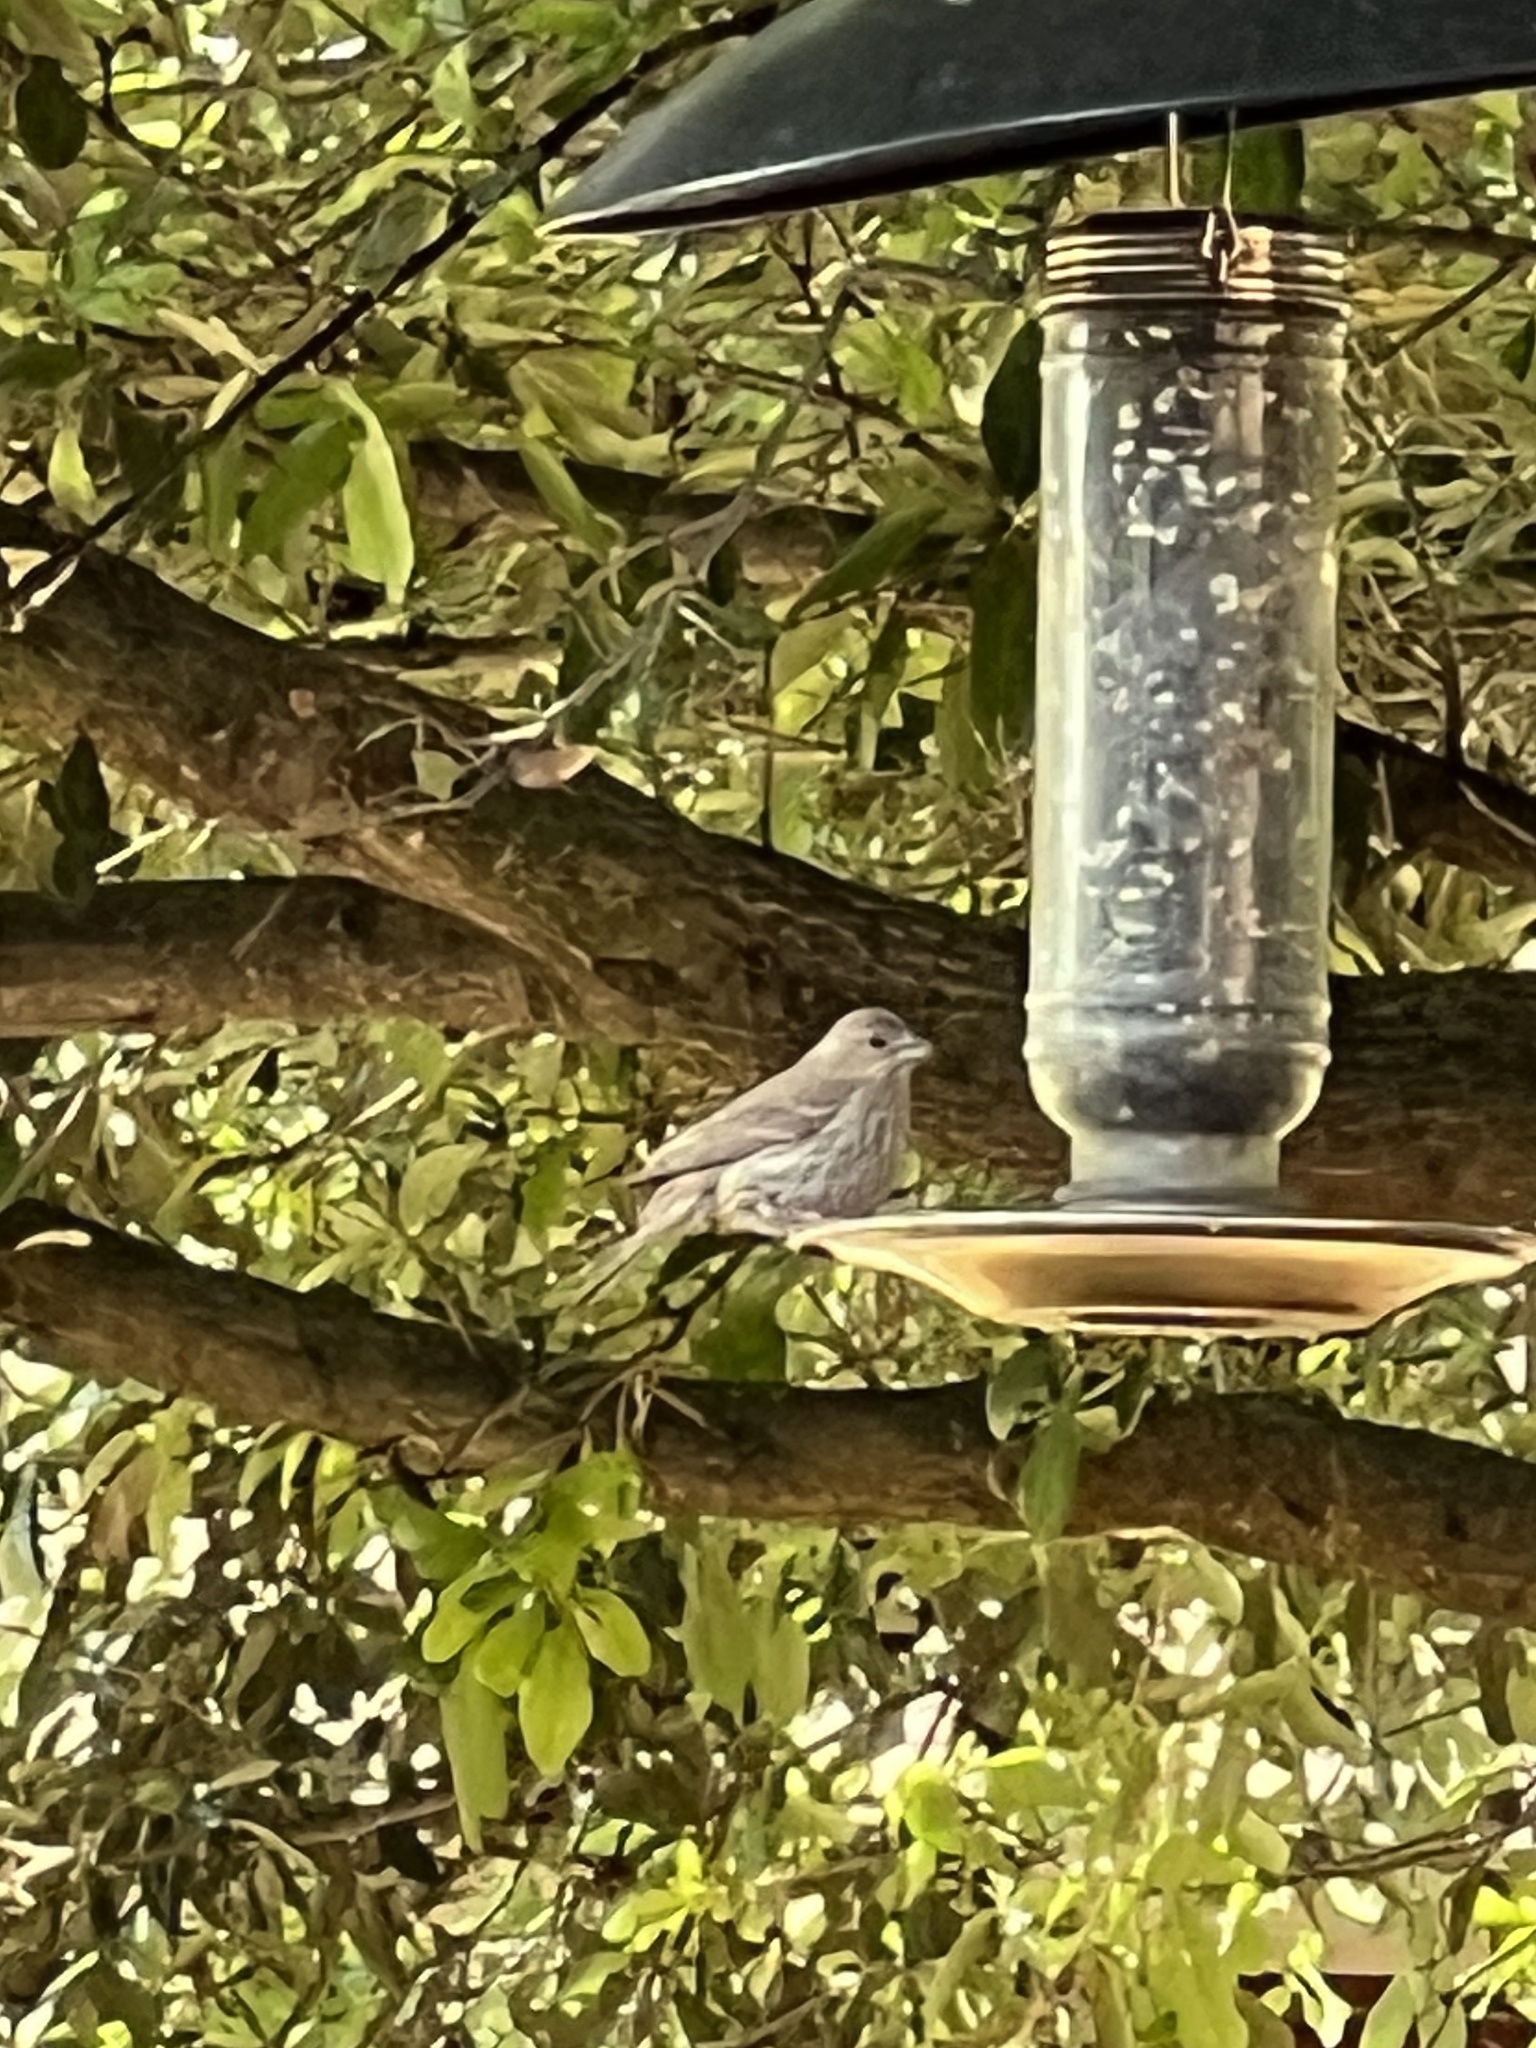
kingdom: Animalia
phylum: Chordata
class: Aves
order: Passeriformes
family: Fringillidae
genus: Haemorhous
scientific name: Haemorhous mexicanus
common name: House finch
